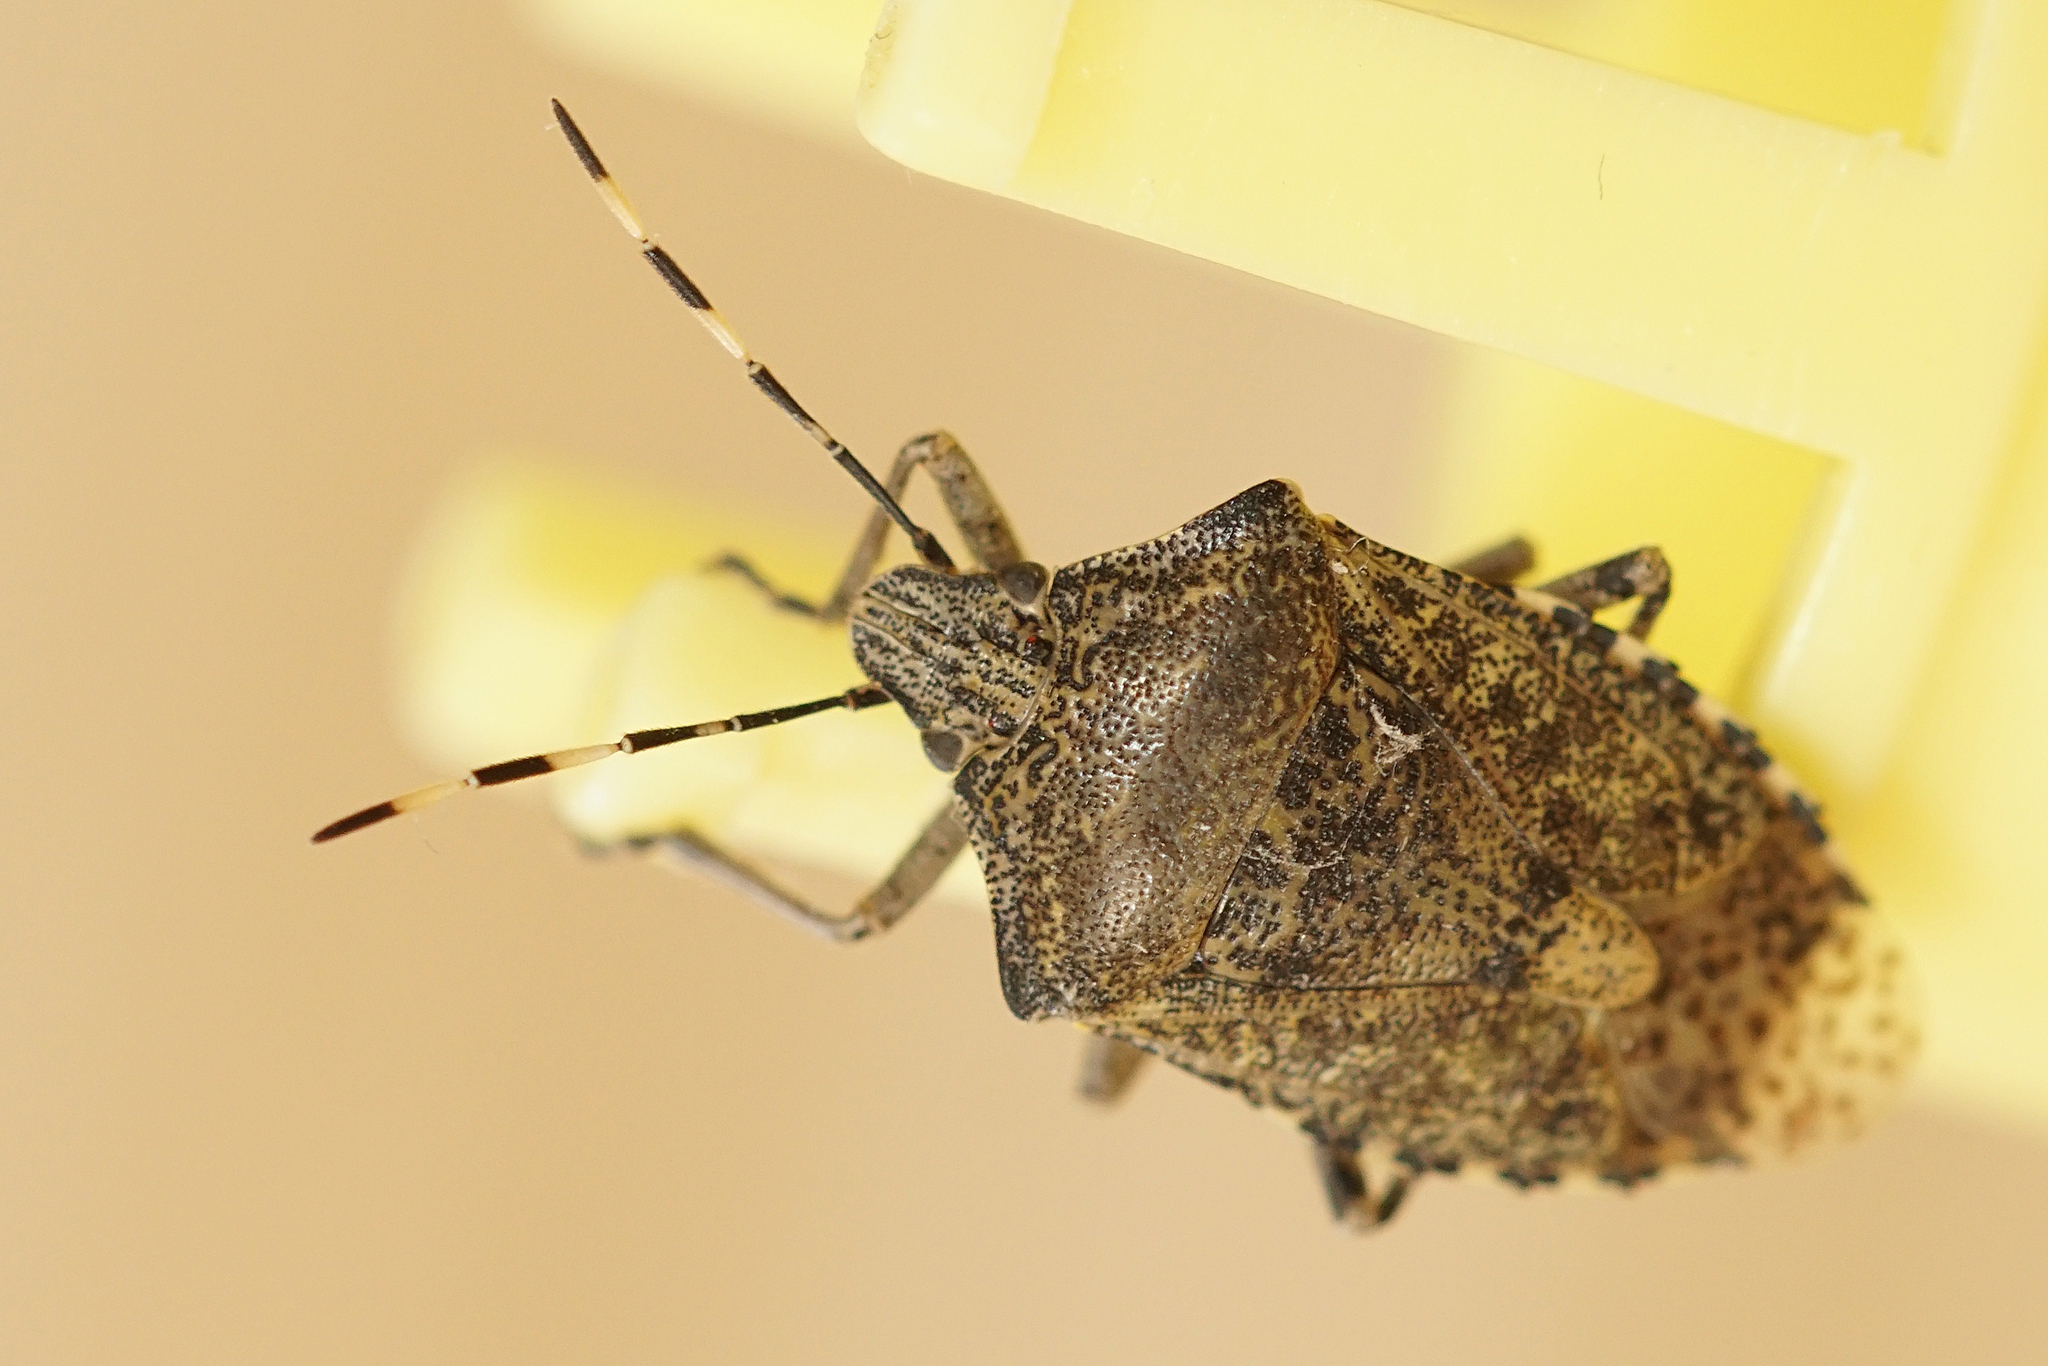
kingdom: Animalia
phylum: Arthropoda
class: Insecta
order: Hemiptera
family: Pentatomidae
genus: Rhaphigaster
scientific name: Rhaphigaster nebulosa
